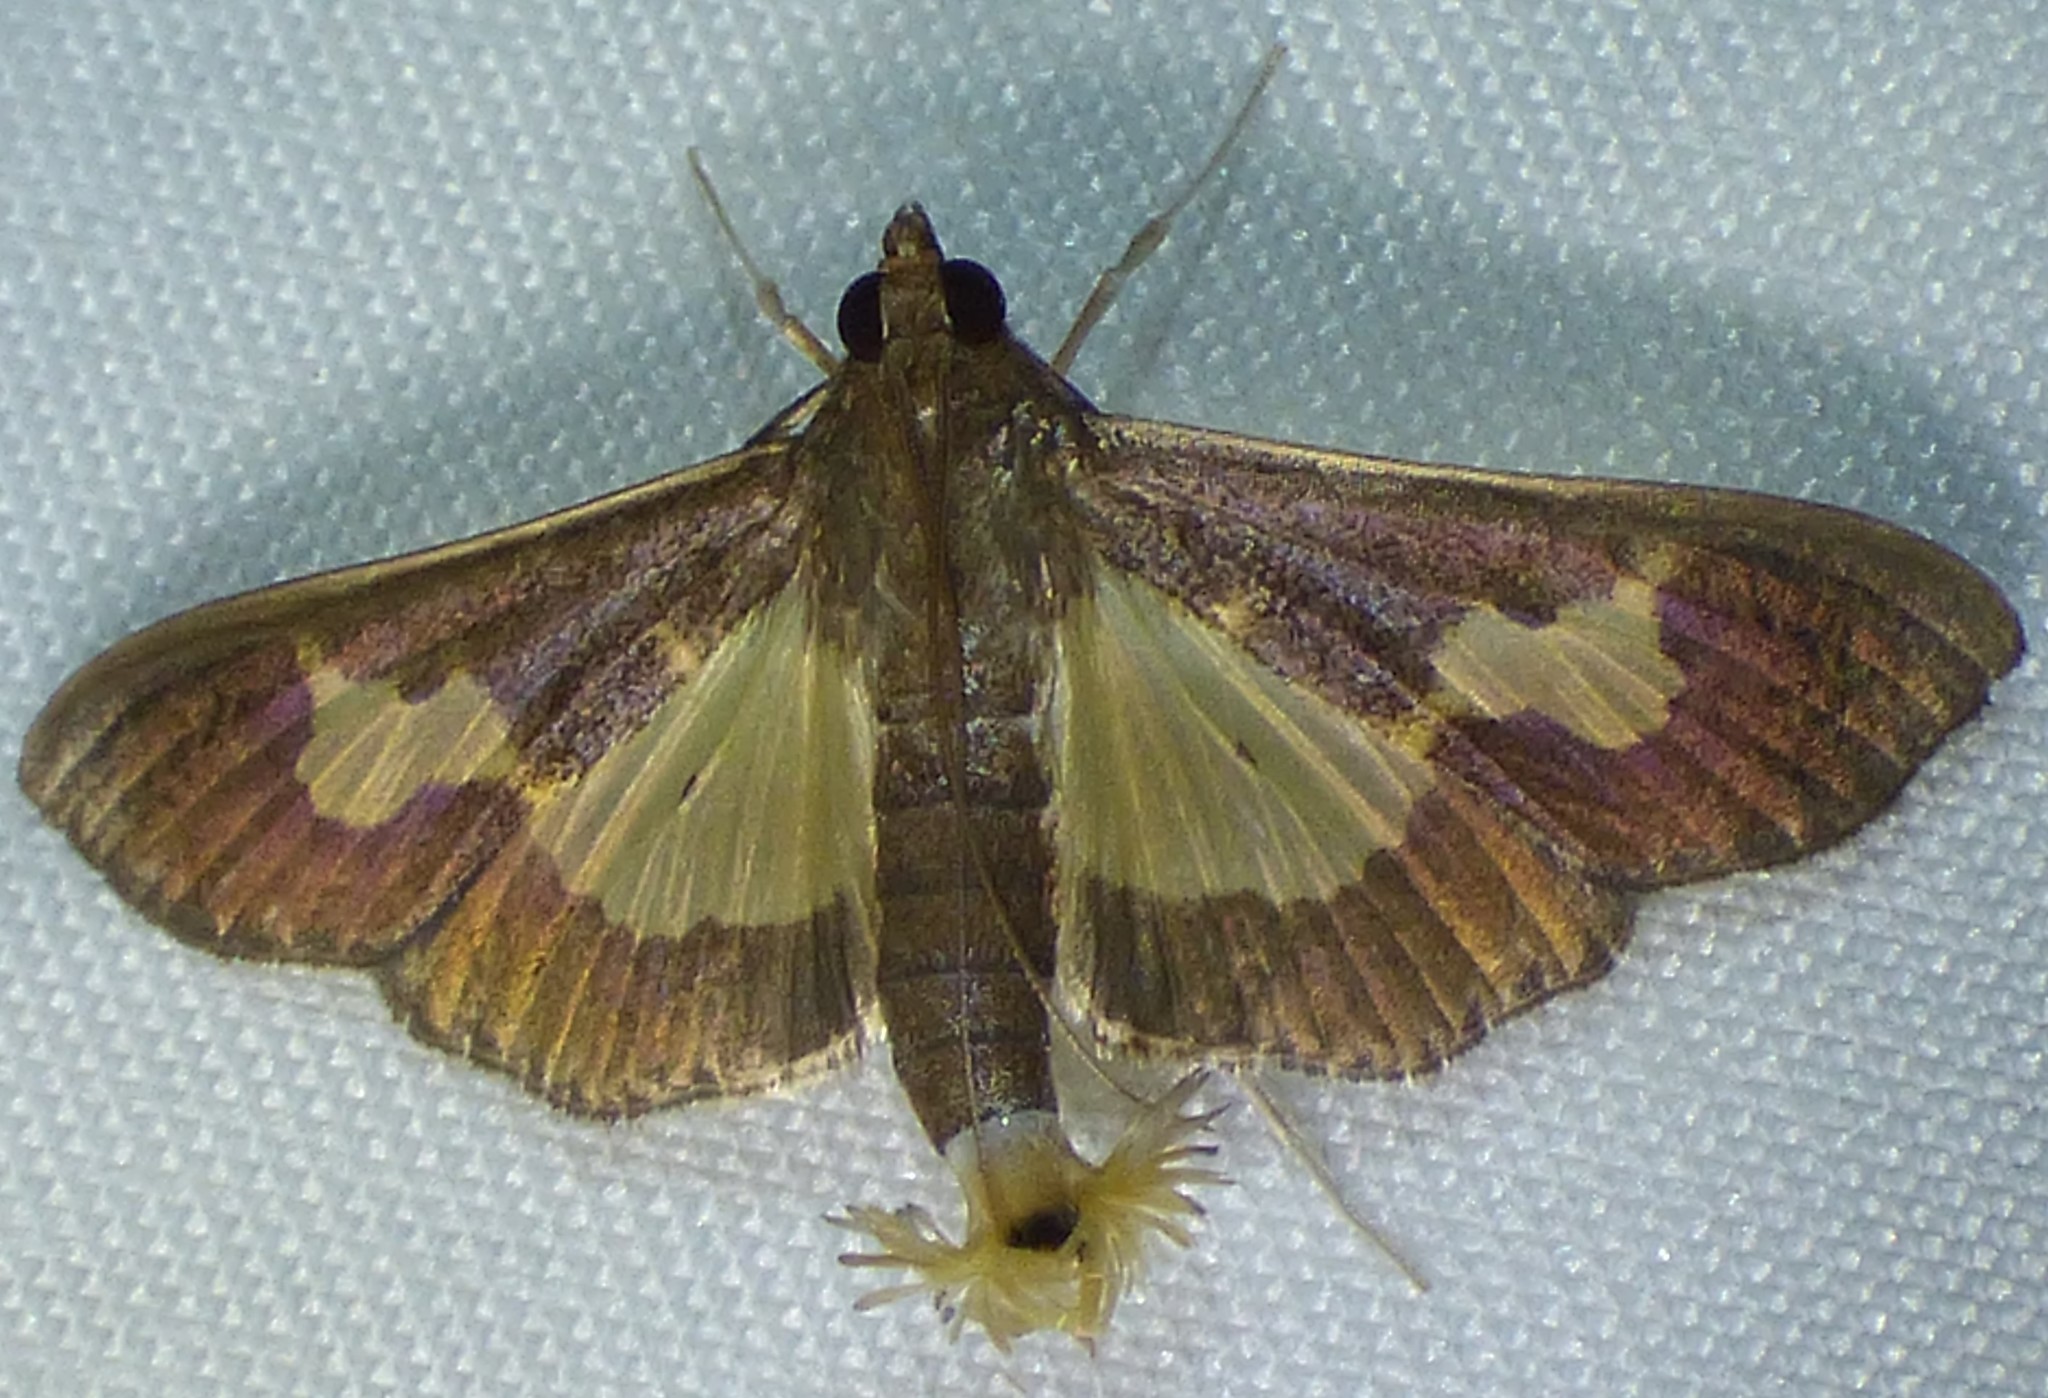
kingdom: Animalia
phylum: Arthropoda
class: Insecta
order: Lepidoptera
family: Crambidae
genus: Cryptographis
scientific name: Cryptographis nitidalis
